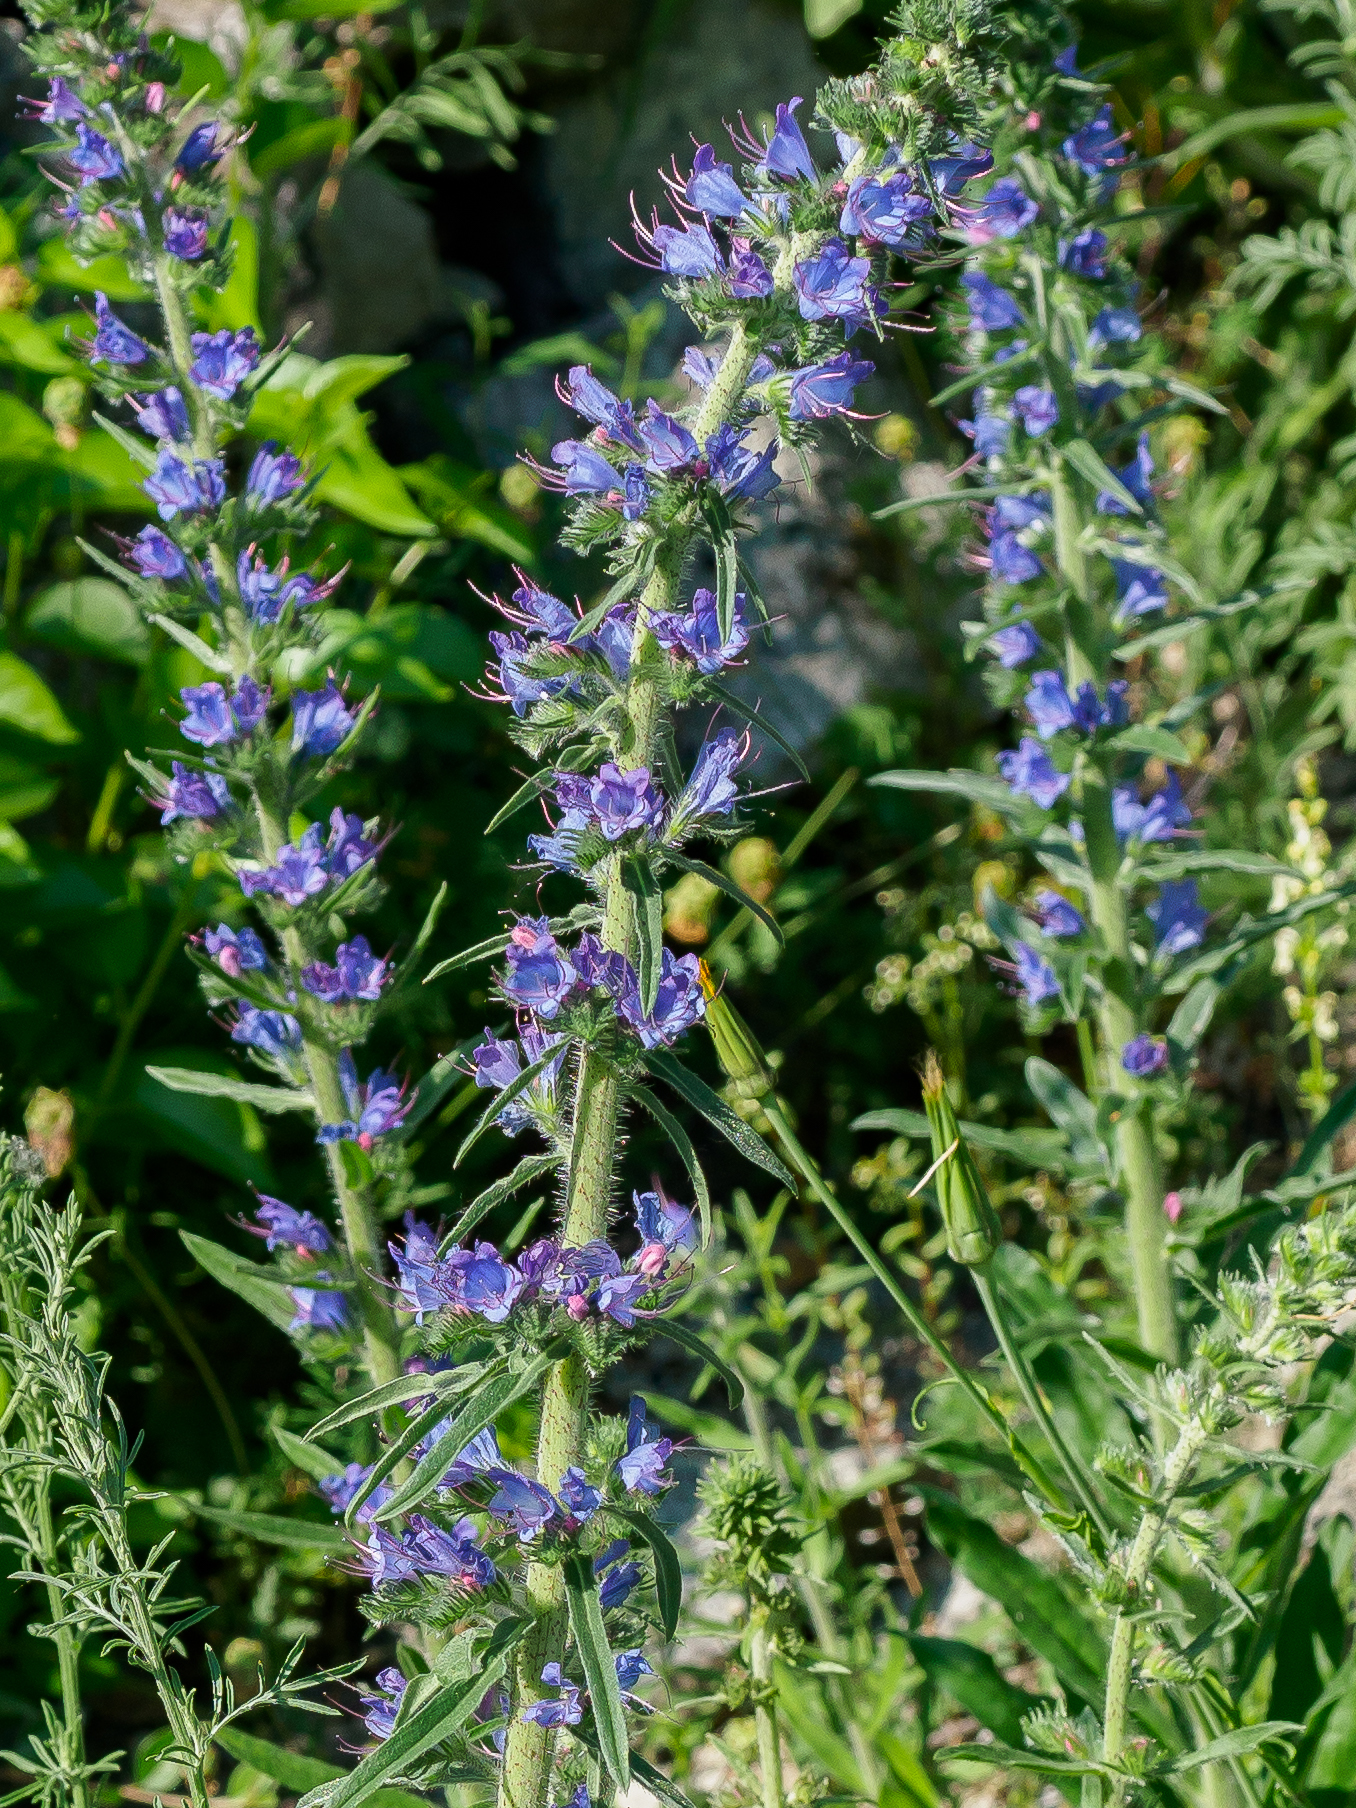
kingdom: Plantae
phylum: Tracheophyta
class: Magnoliopsida
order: Boraginales
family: Boraginaceae
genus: Echium
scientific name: Echium vulgare
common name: Common viper's bugloss
